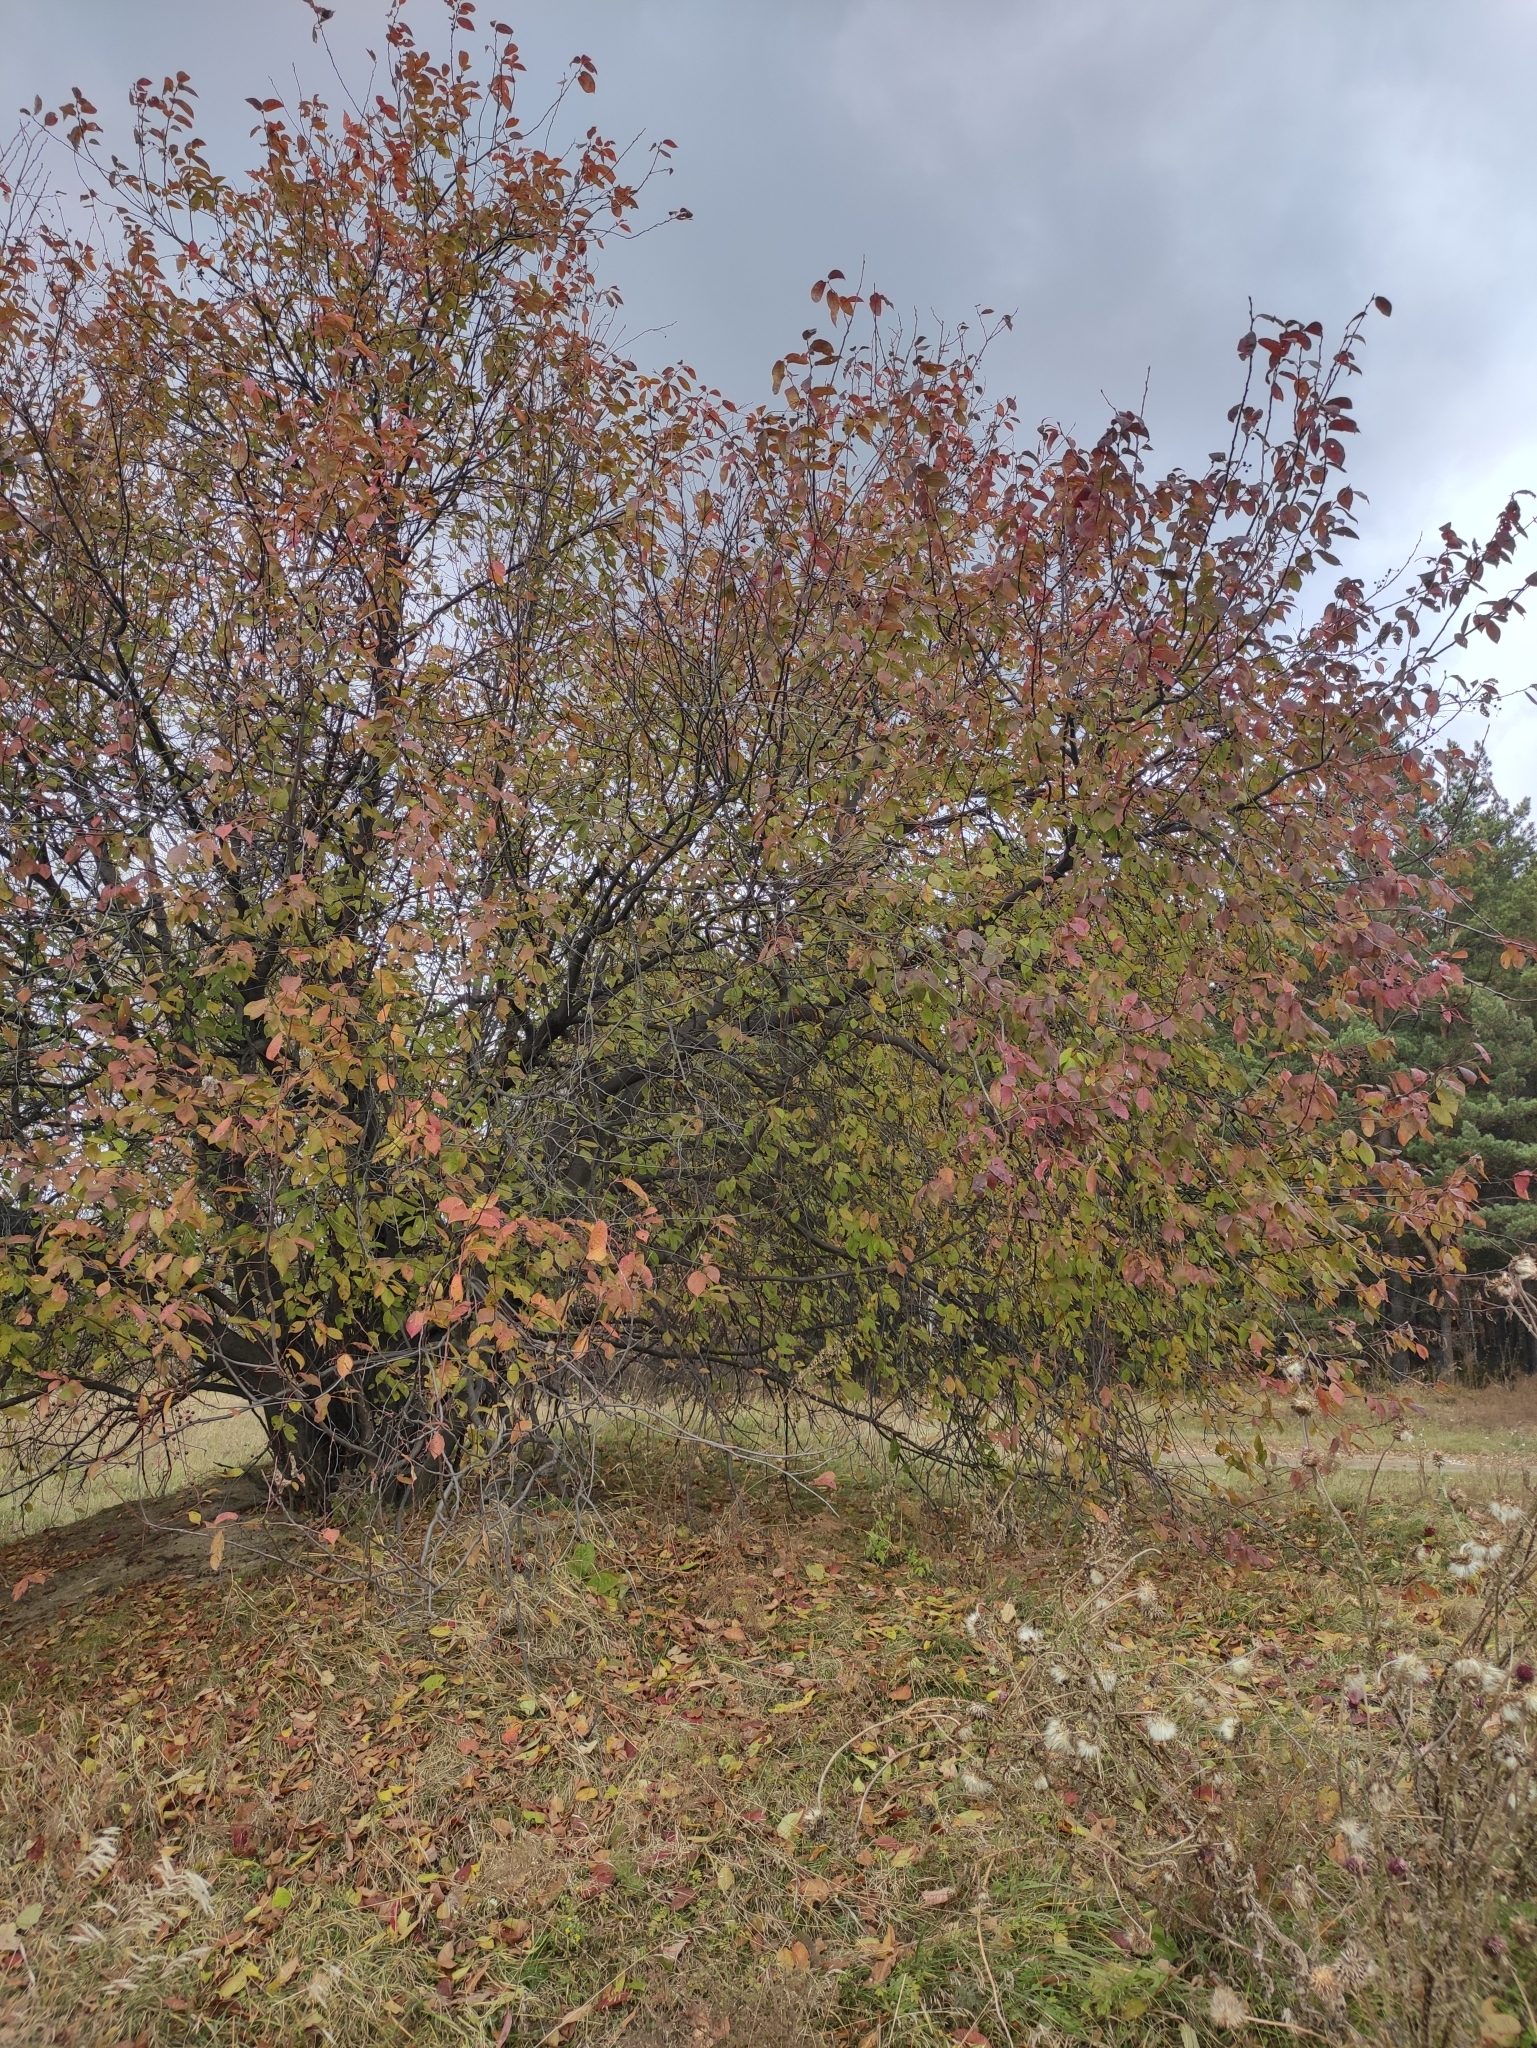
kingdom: Plantae
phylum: Tracheophyta
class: Magnoliopsida
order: Rosales
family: Rosaceae
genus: Prunus
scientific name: Prunus padus
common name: Bird cherry
